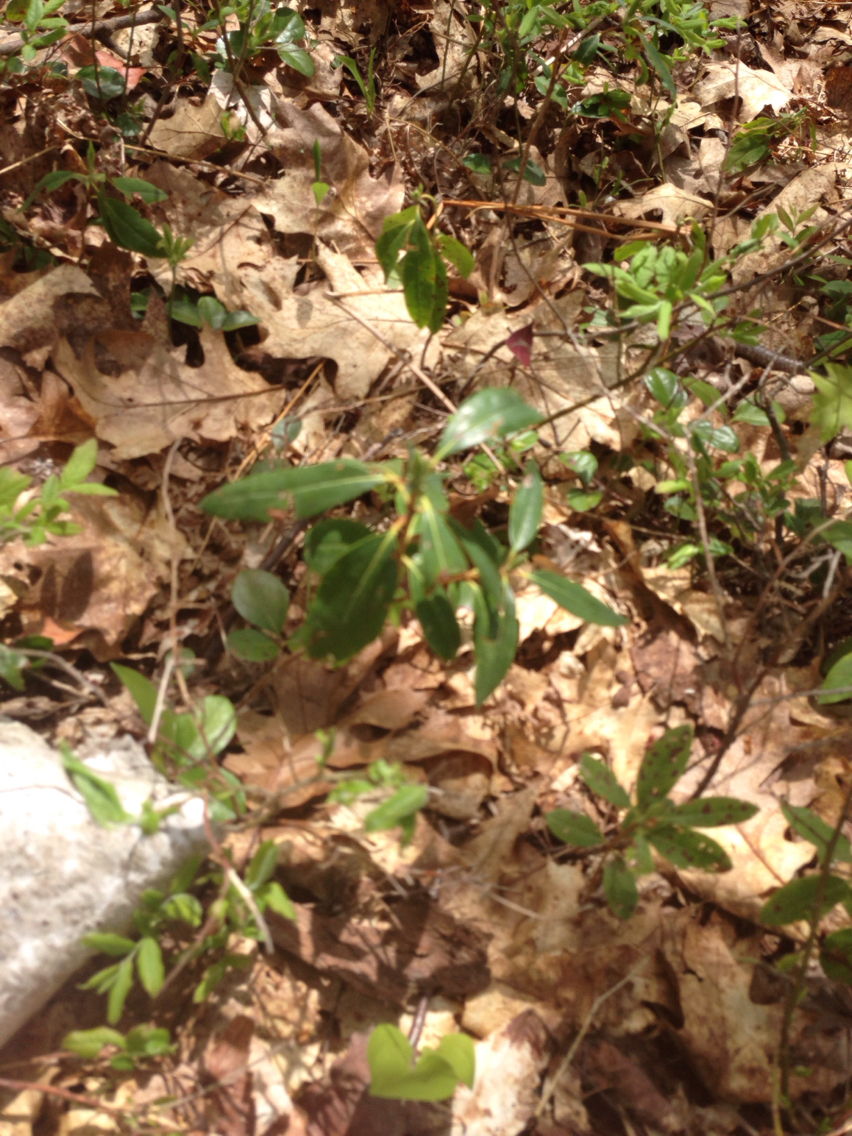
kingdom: Plantae
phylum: Tracheophyta
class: Magnoliopsida
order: Ericales
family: Ericaceae
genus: Kalmia
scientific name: Kalmia angustifolia
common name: Sheep-laurel
